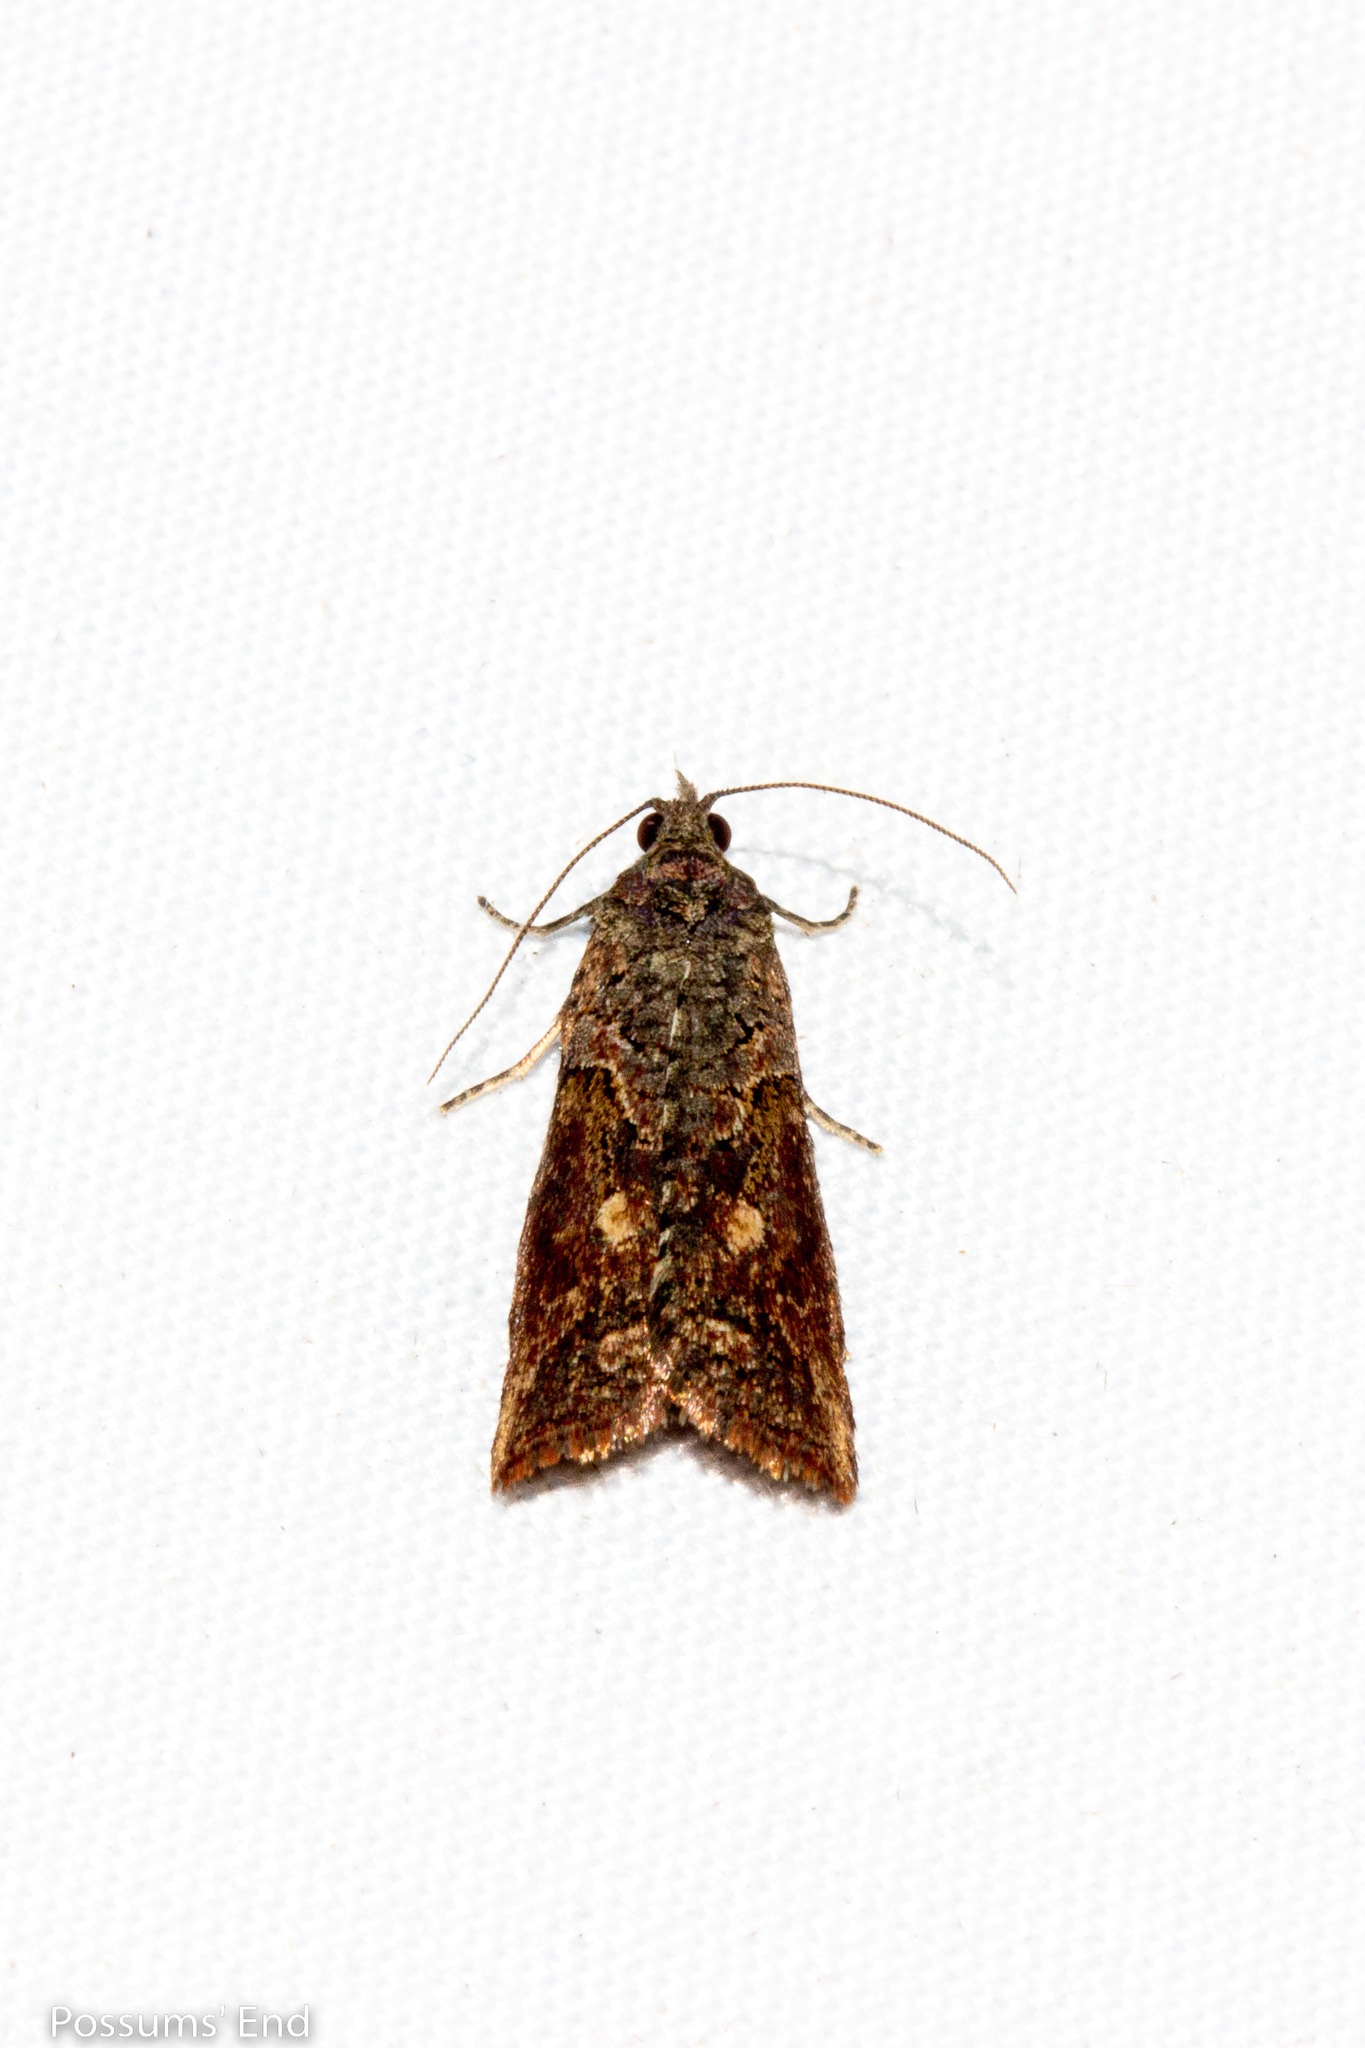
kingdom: Animalia
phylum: Arthropoda
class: Insecta
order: Lepidoptera
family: Tortricidae
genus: Harmologa
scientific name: Harmologa scoliastis
